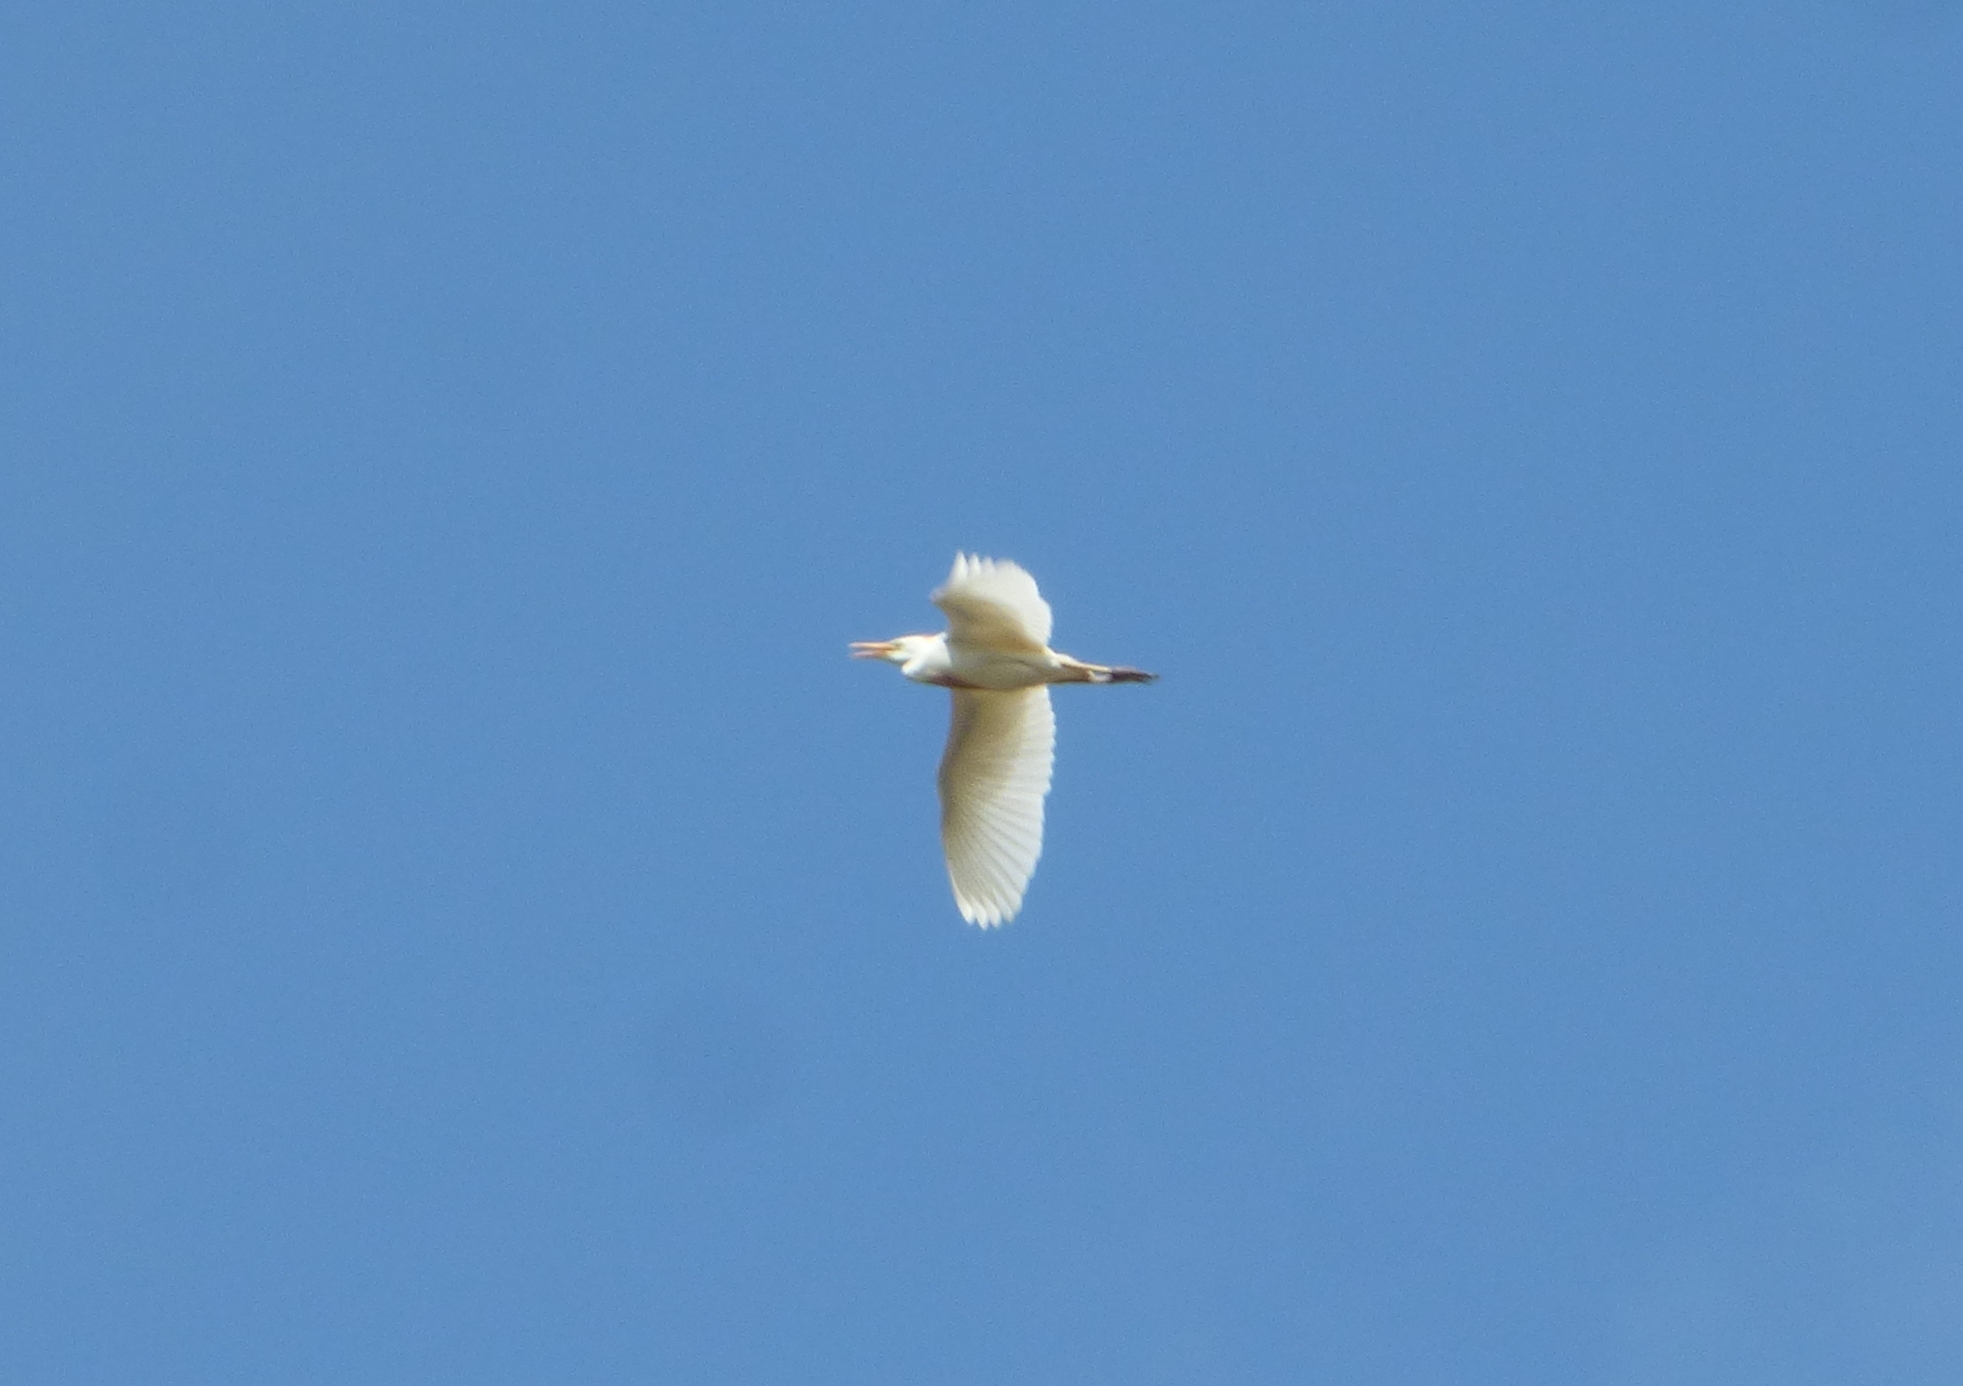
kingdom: Animalia
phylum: Chordata
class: Aves
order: Pelecaniformes
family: Ardeidae
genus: Bubulcus
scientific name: Bubulcus ibis
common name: Cattle egret
